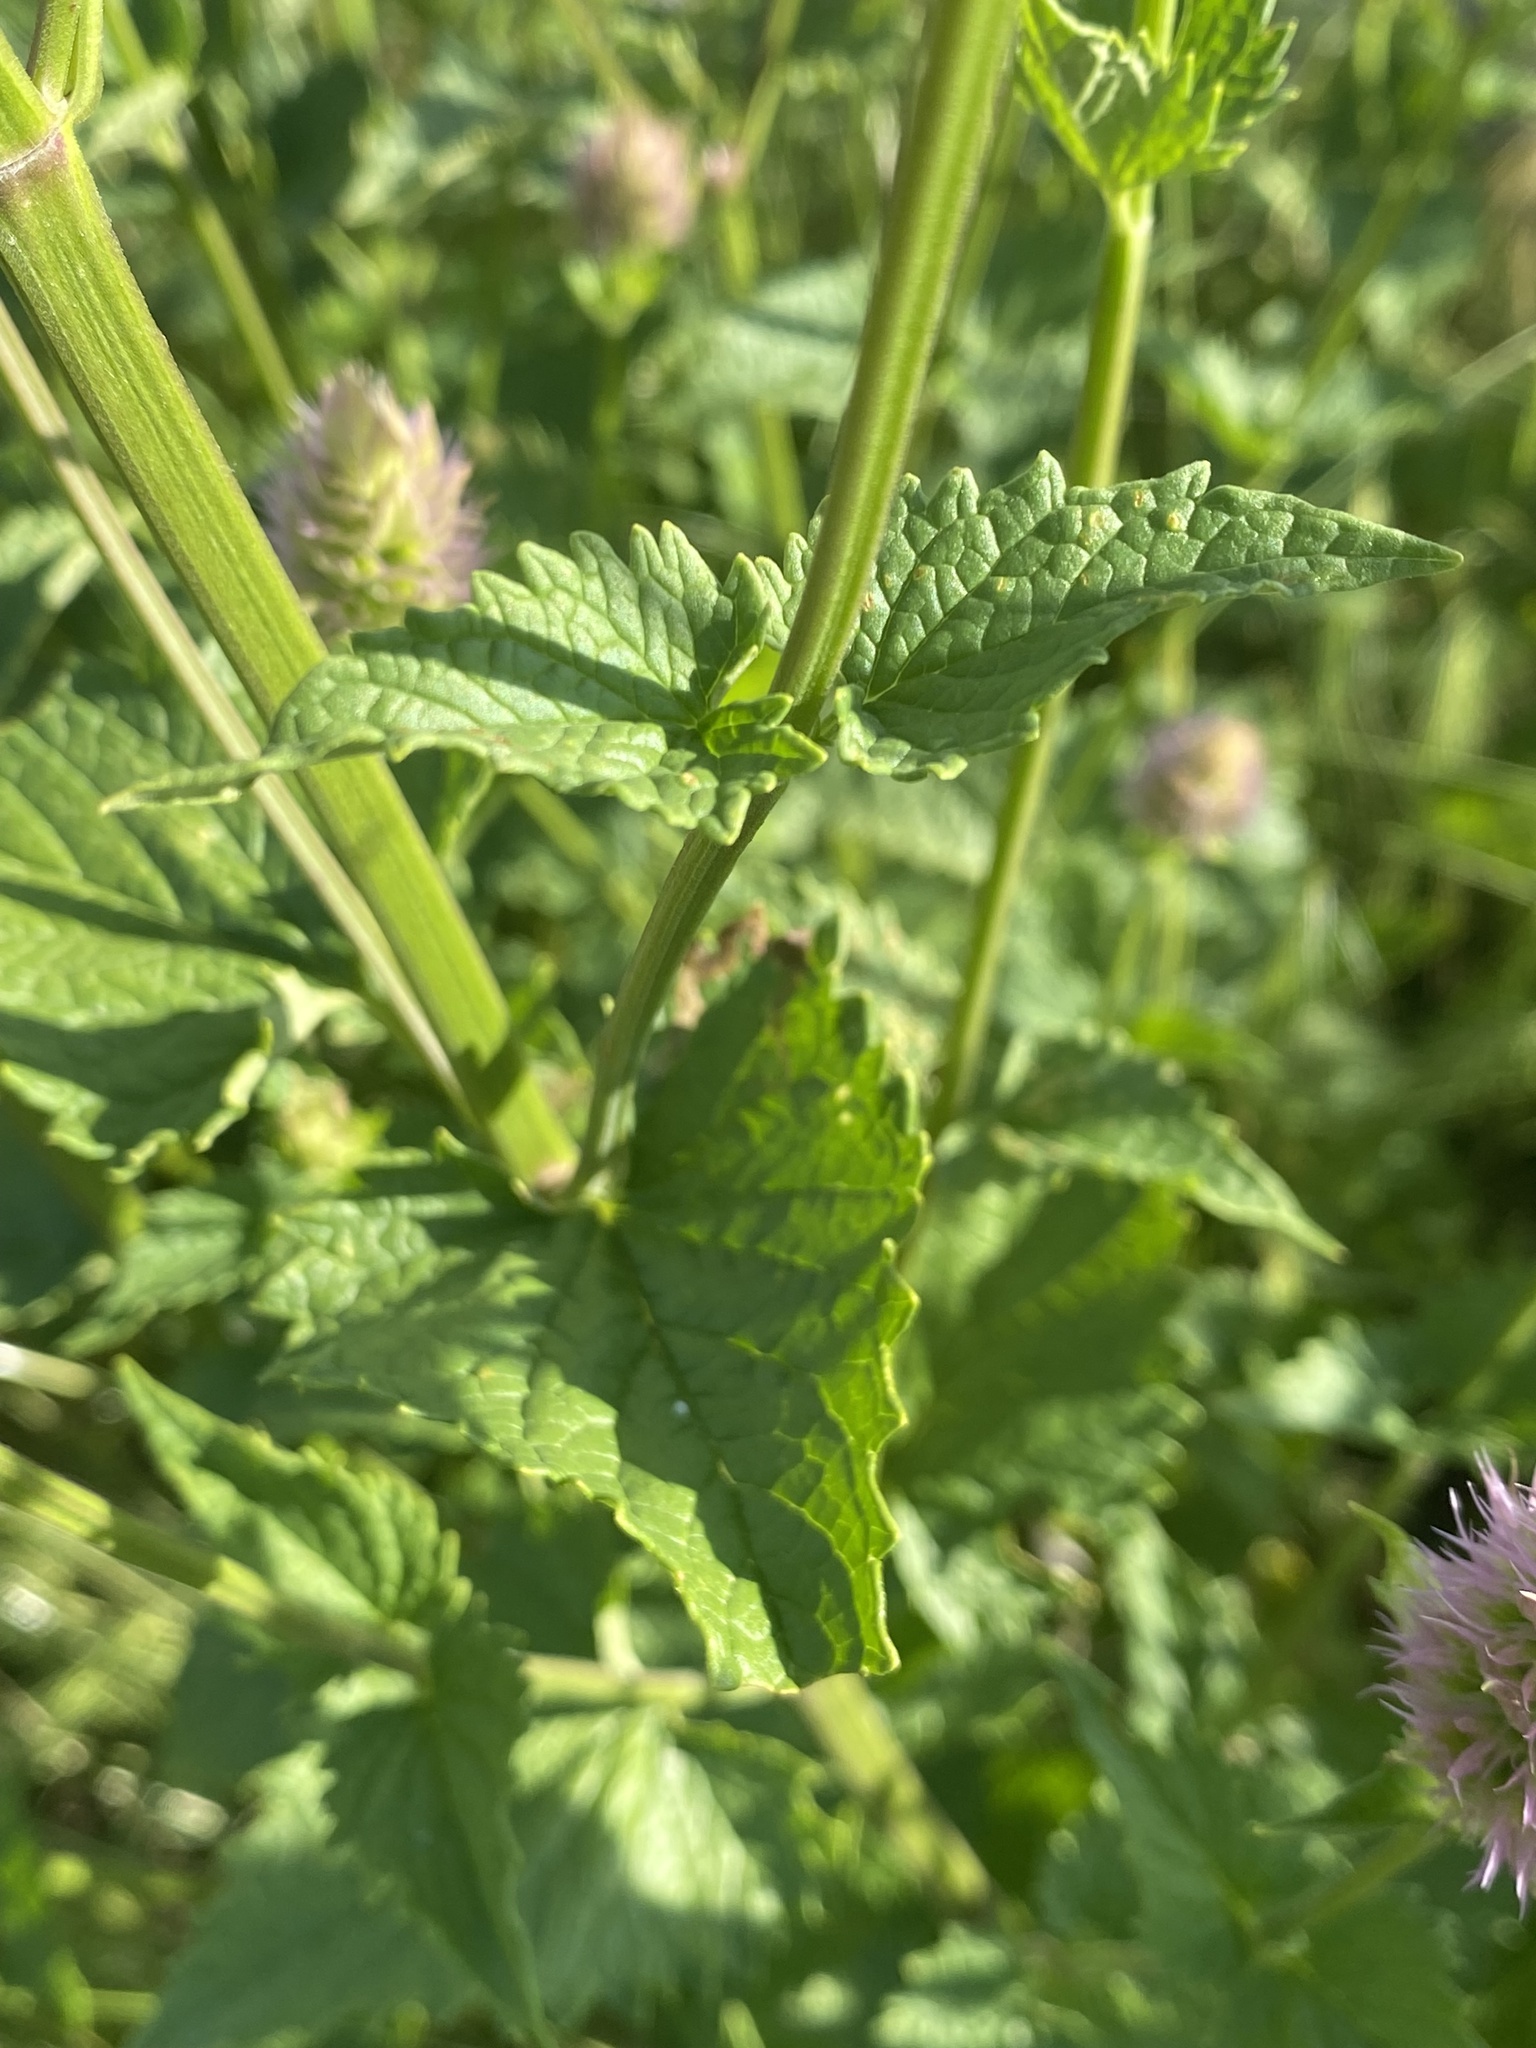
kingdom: Plantae
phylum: Tracheophyta
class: Magnoliopsida
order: Lamiales
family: Lamiaceae
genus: Agastache
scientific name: Agastache urticifolia
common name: Horsemint giant hyssop
